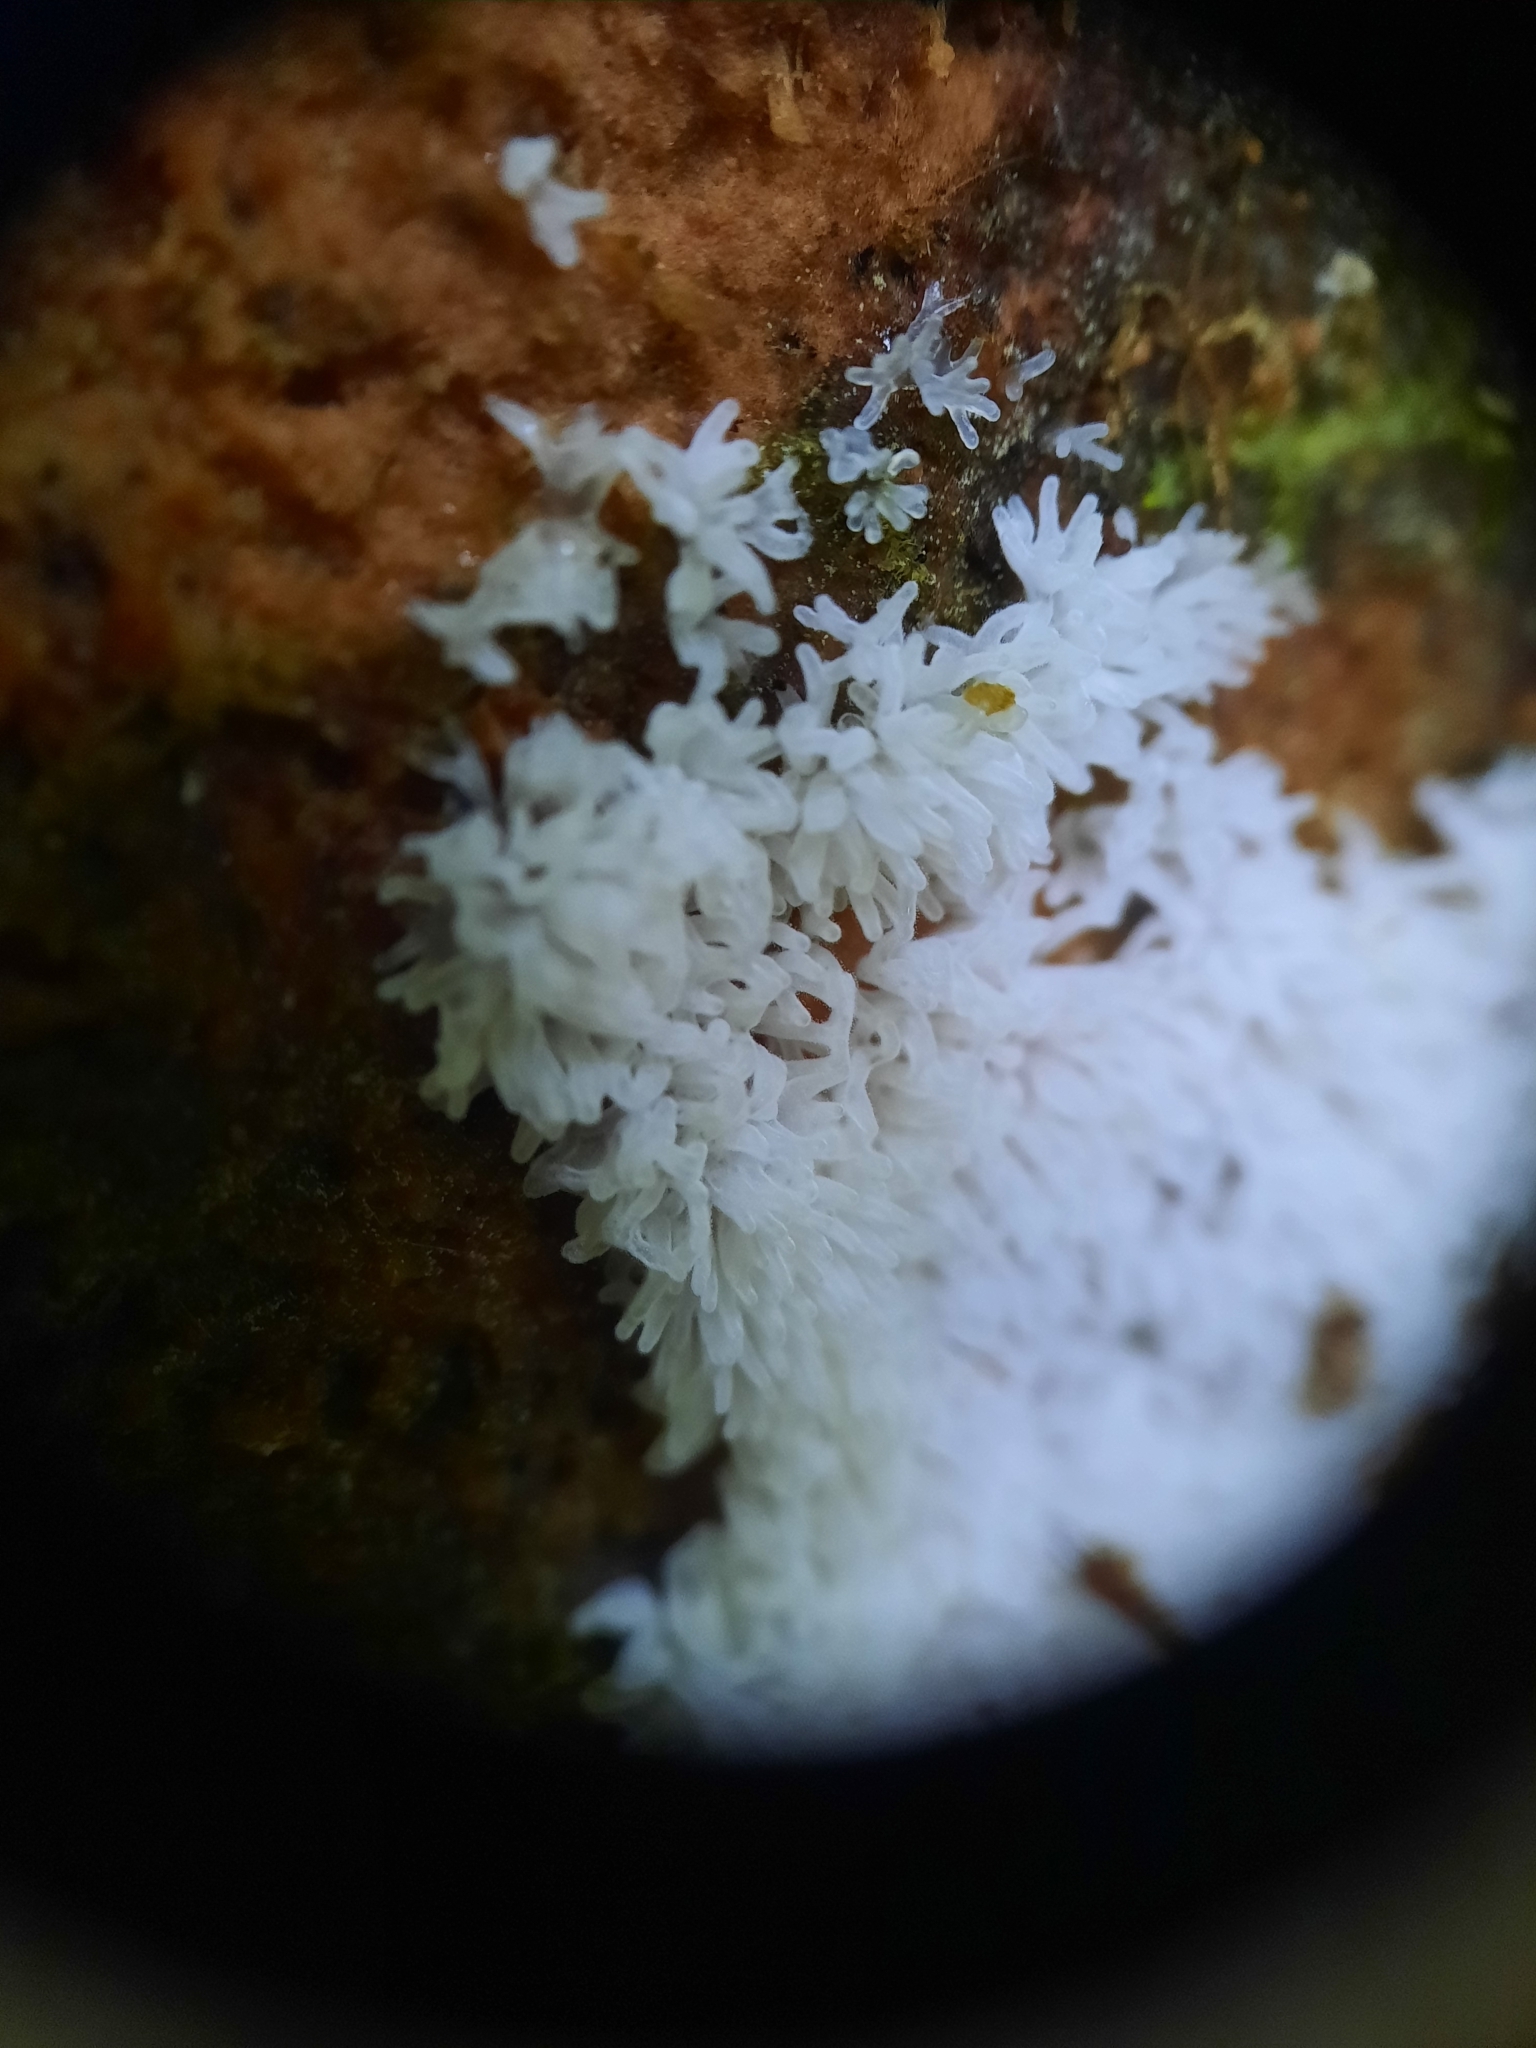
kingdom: Protozoa
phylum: Mycetozoa
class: Protosteliomycetes
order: Ceratiomyxales
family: Ceratiomyxaceae
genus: Ceratiomyxa
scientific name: Ceratiomyxa fruticulosa
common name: Honeycomb coral slime mold
